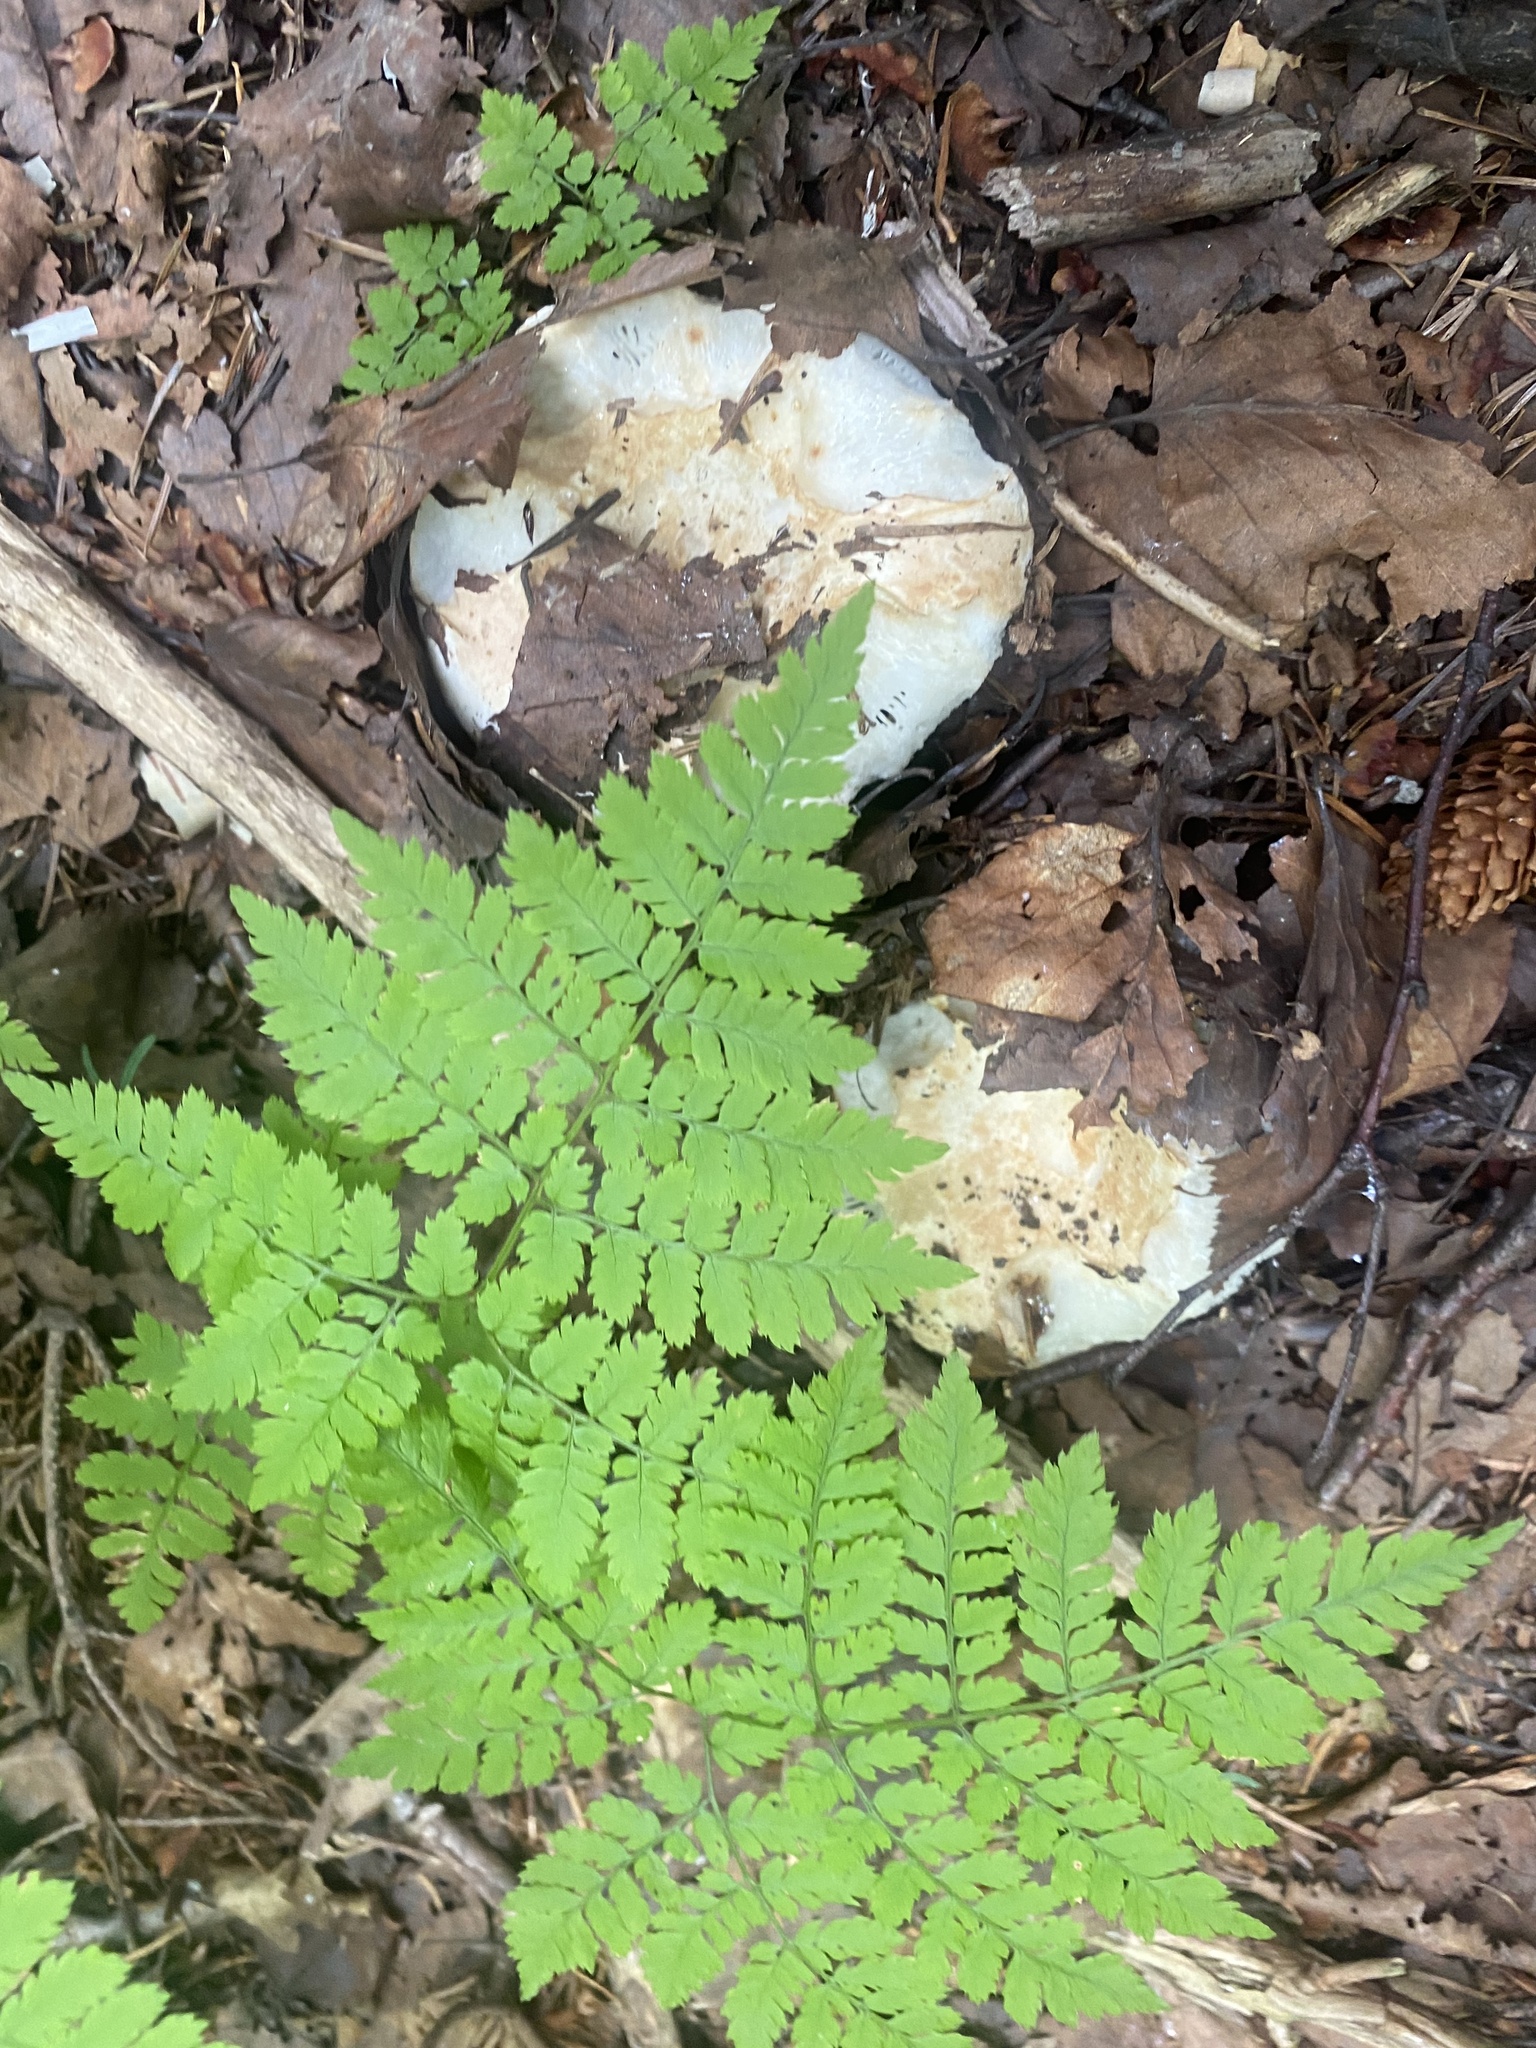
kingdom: Plantae
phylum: Tracheophyta
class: Polypodiopsida
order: Polypodiales
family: Dryopteridaceae
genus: Dryopteris
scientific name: Dryopteris amurensis
